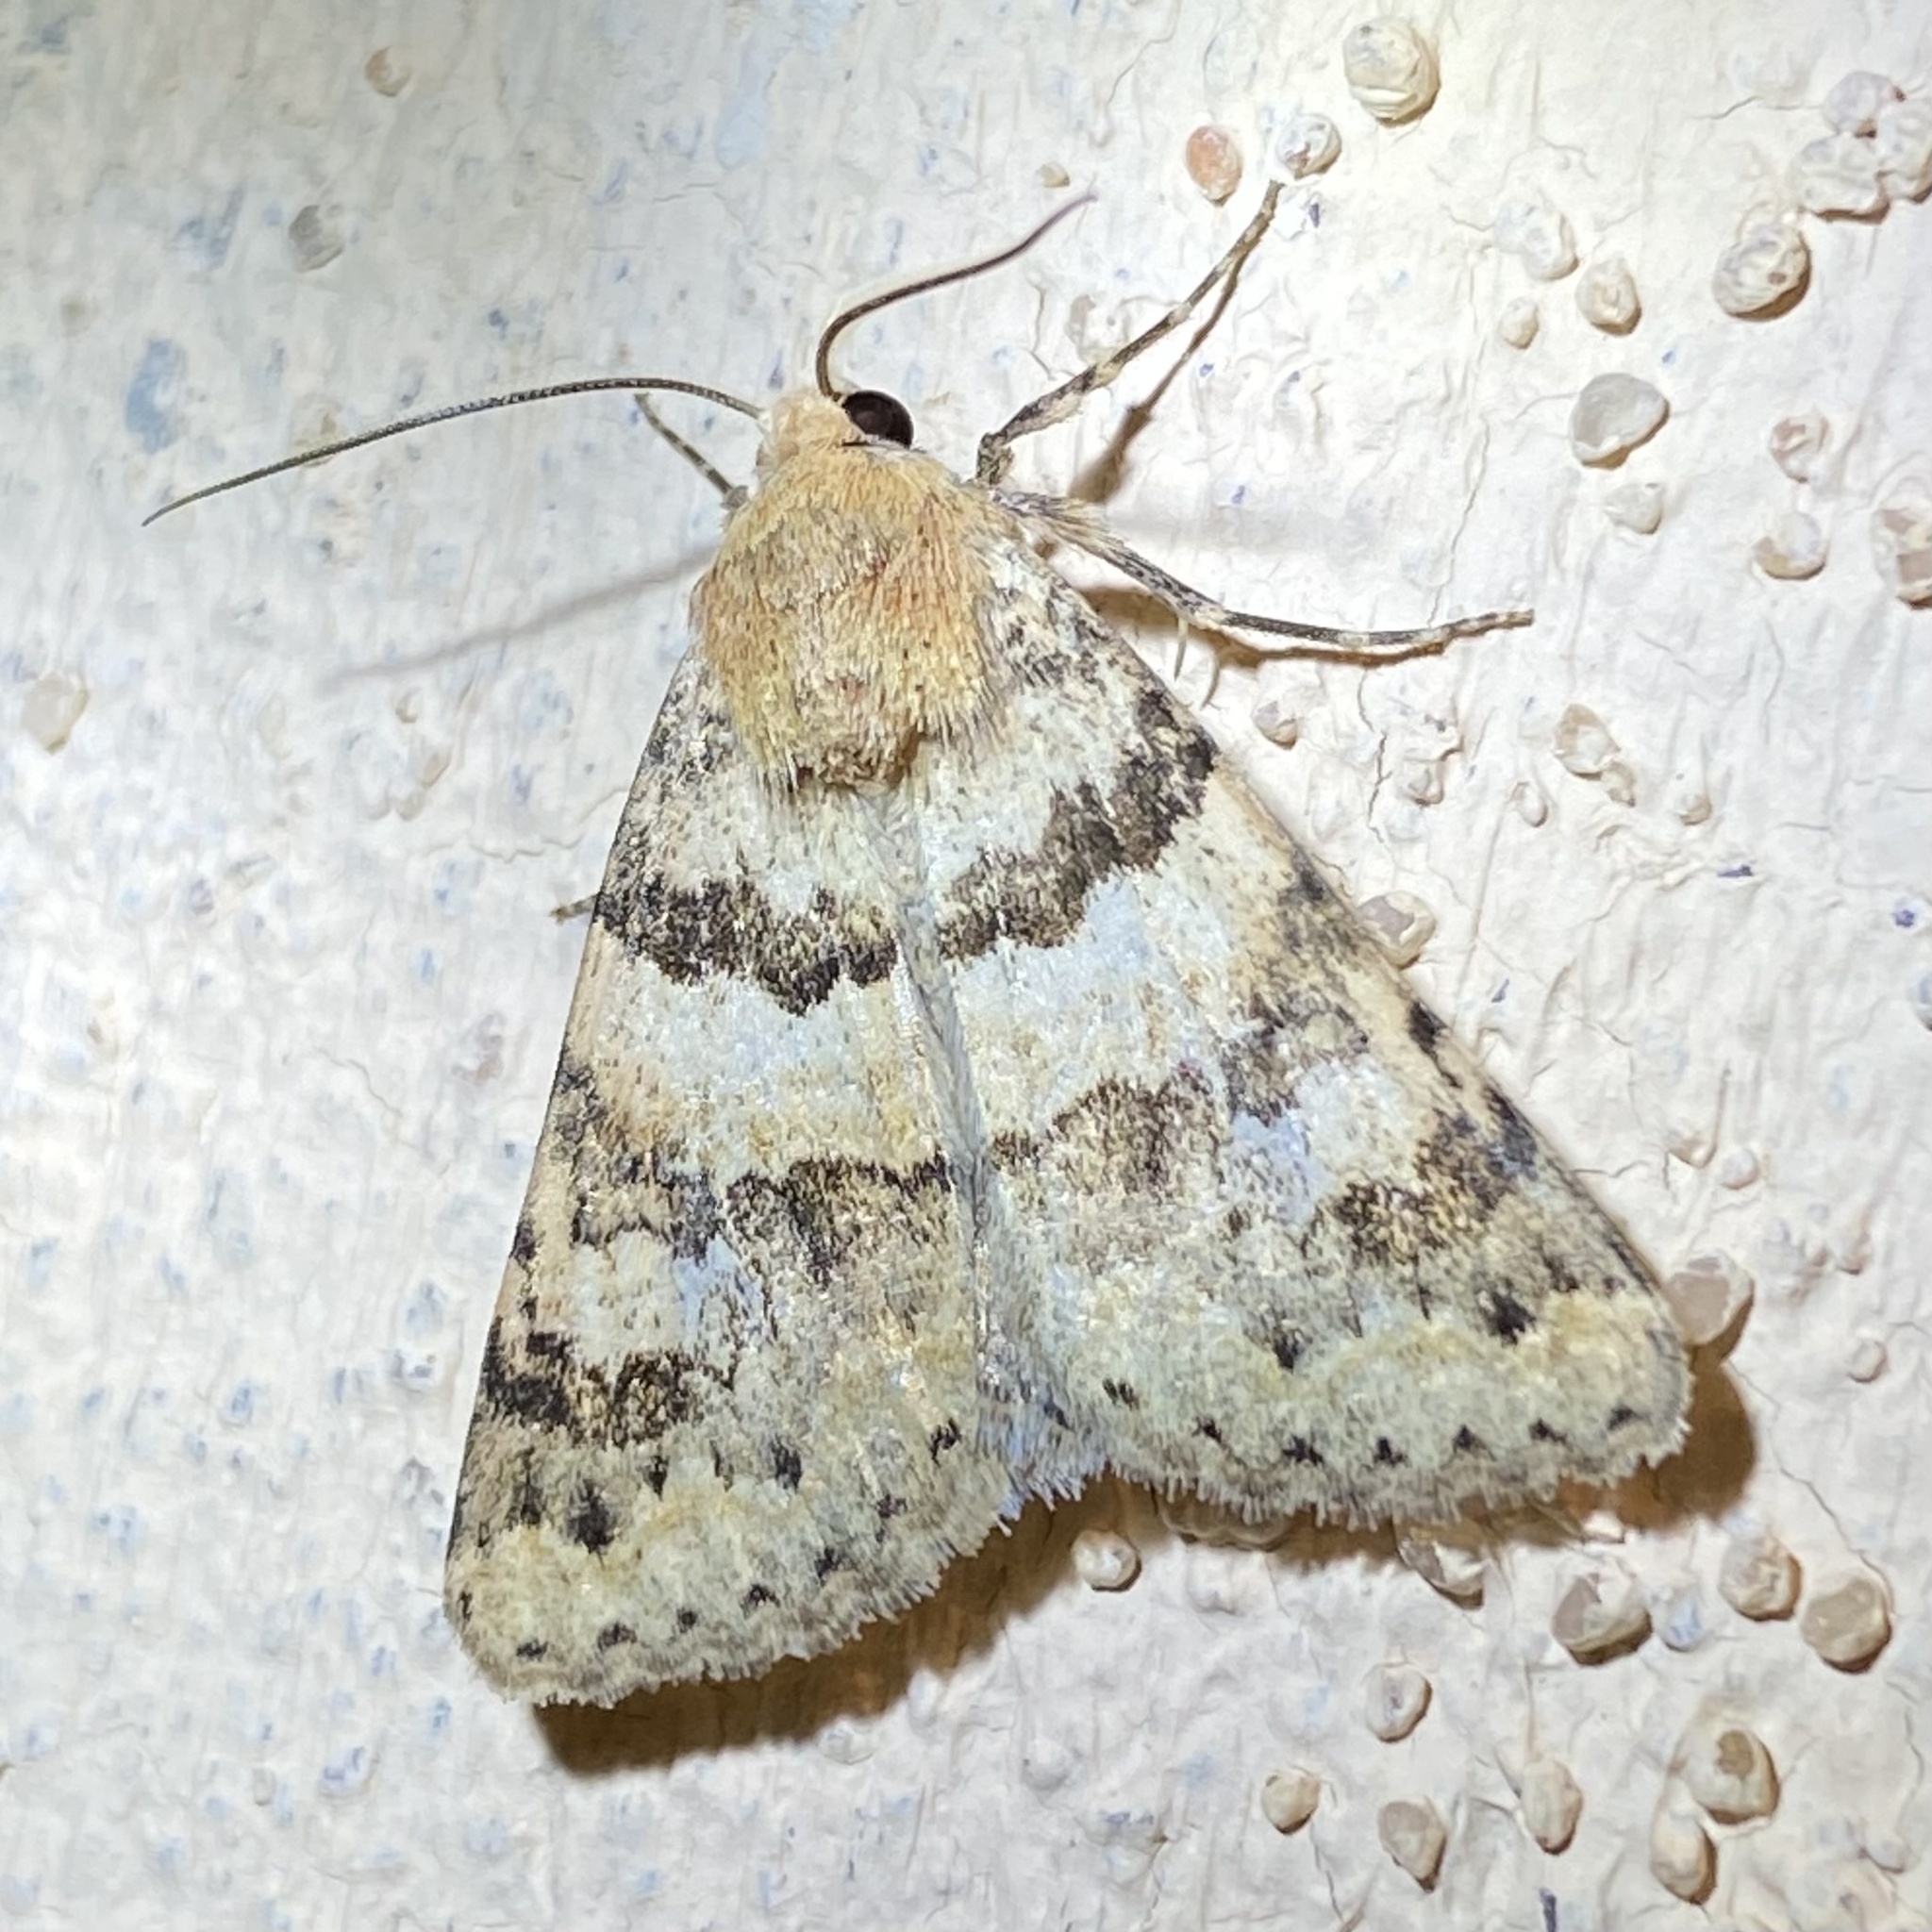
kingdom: Animalia
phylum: Arthropoda
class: Insecta
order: Lepidoptera
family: Erebidae
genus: Drasteria
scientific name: Drasteria inepta
